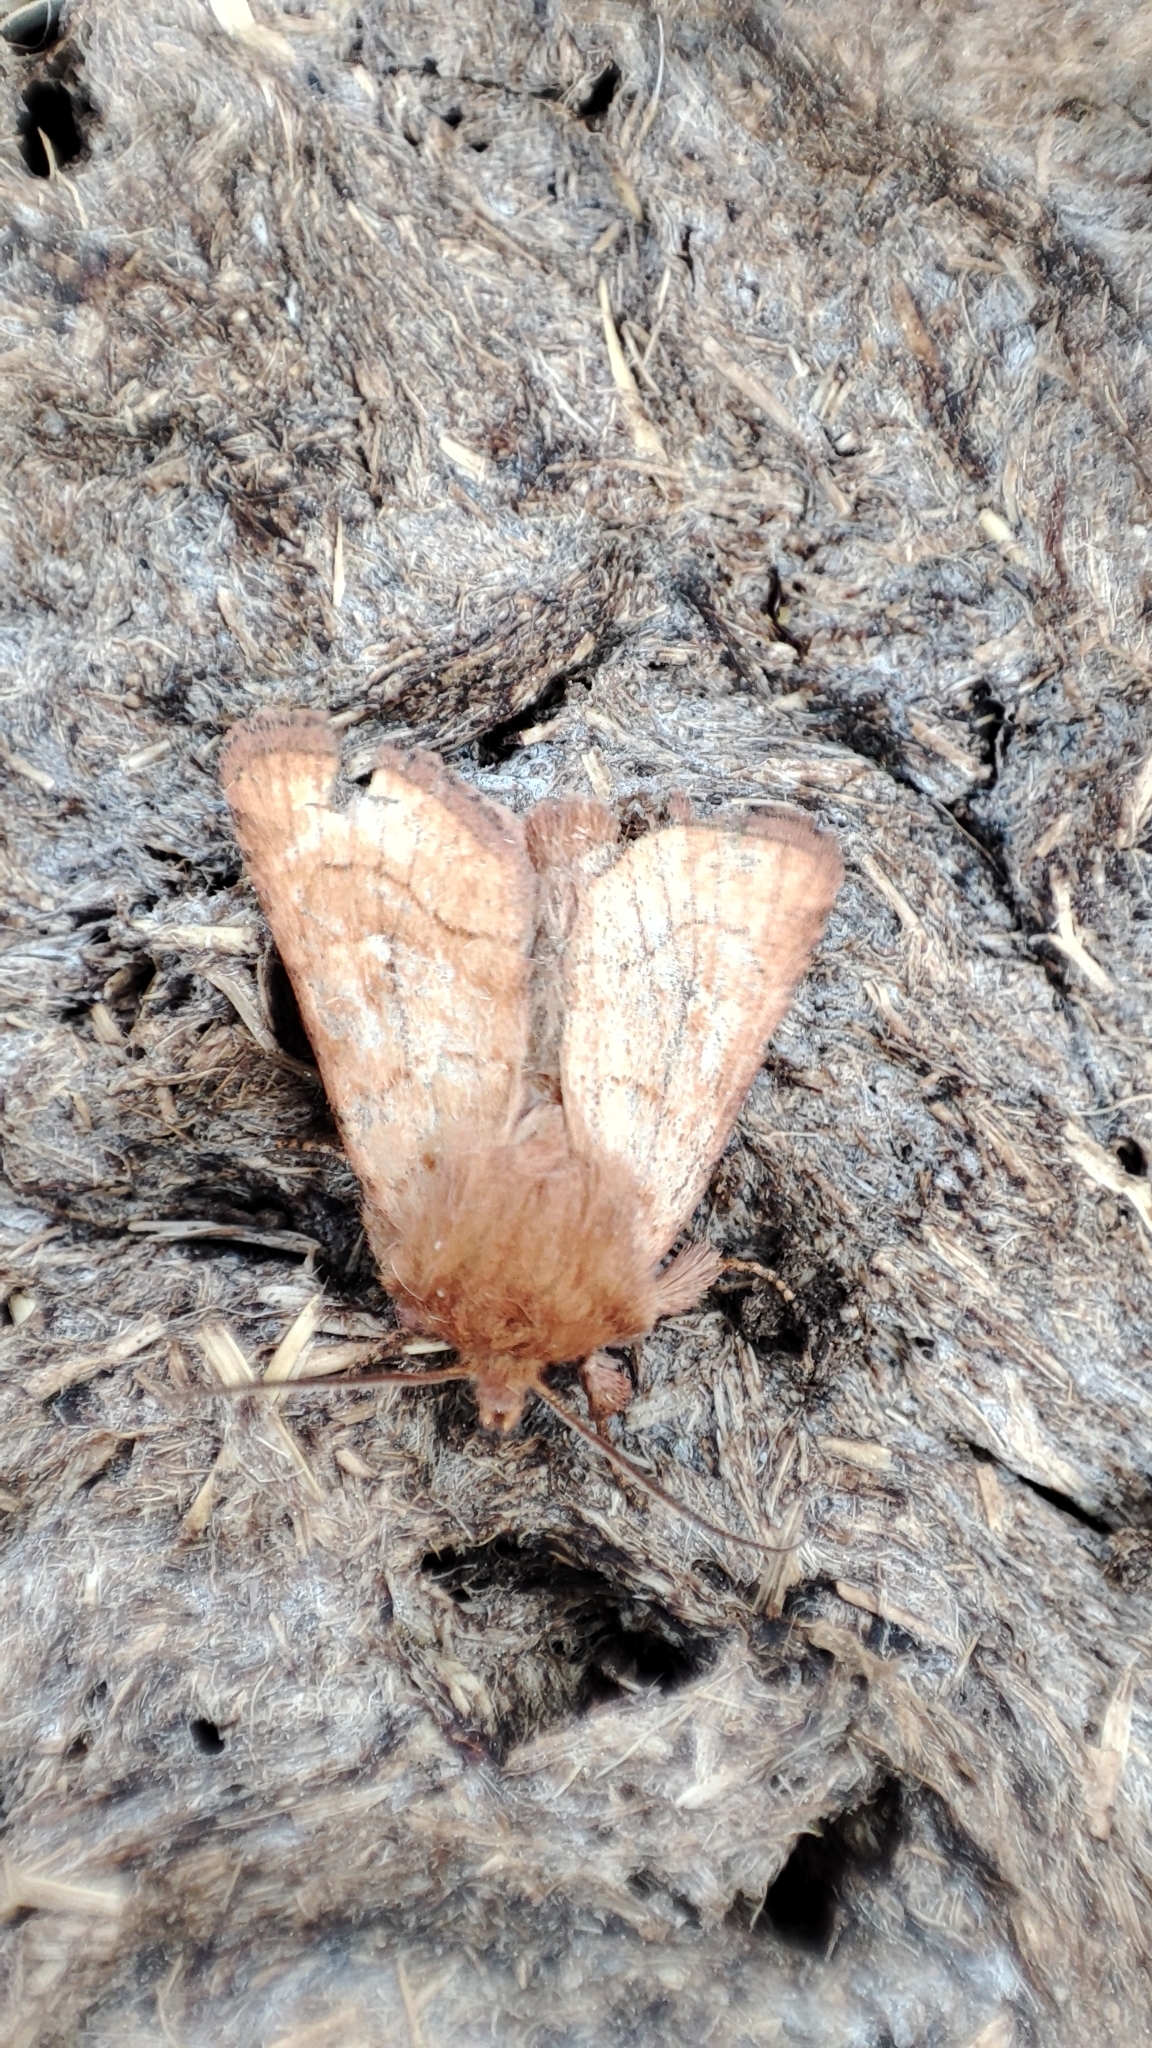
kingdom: Animalia
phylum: Arthropoda
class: Insecta
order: Lepidoptera
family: Noctuidae
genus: Lasionycta
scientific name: Lasionycta Eriopygodes imbecillus
